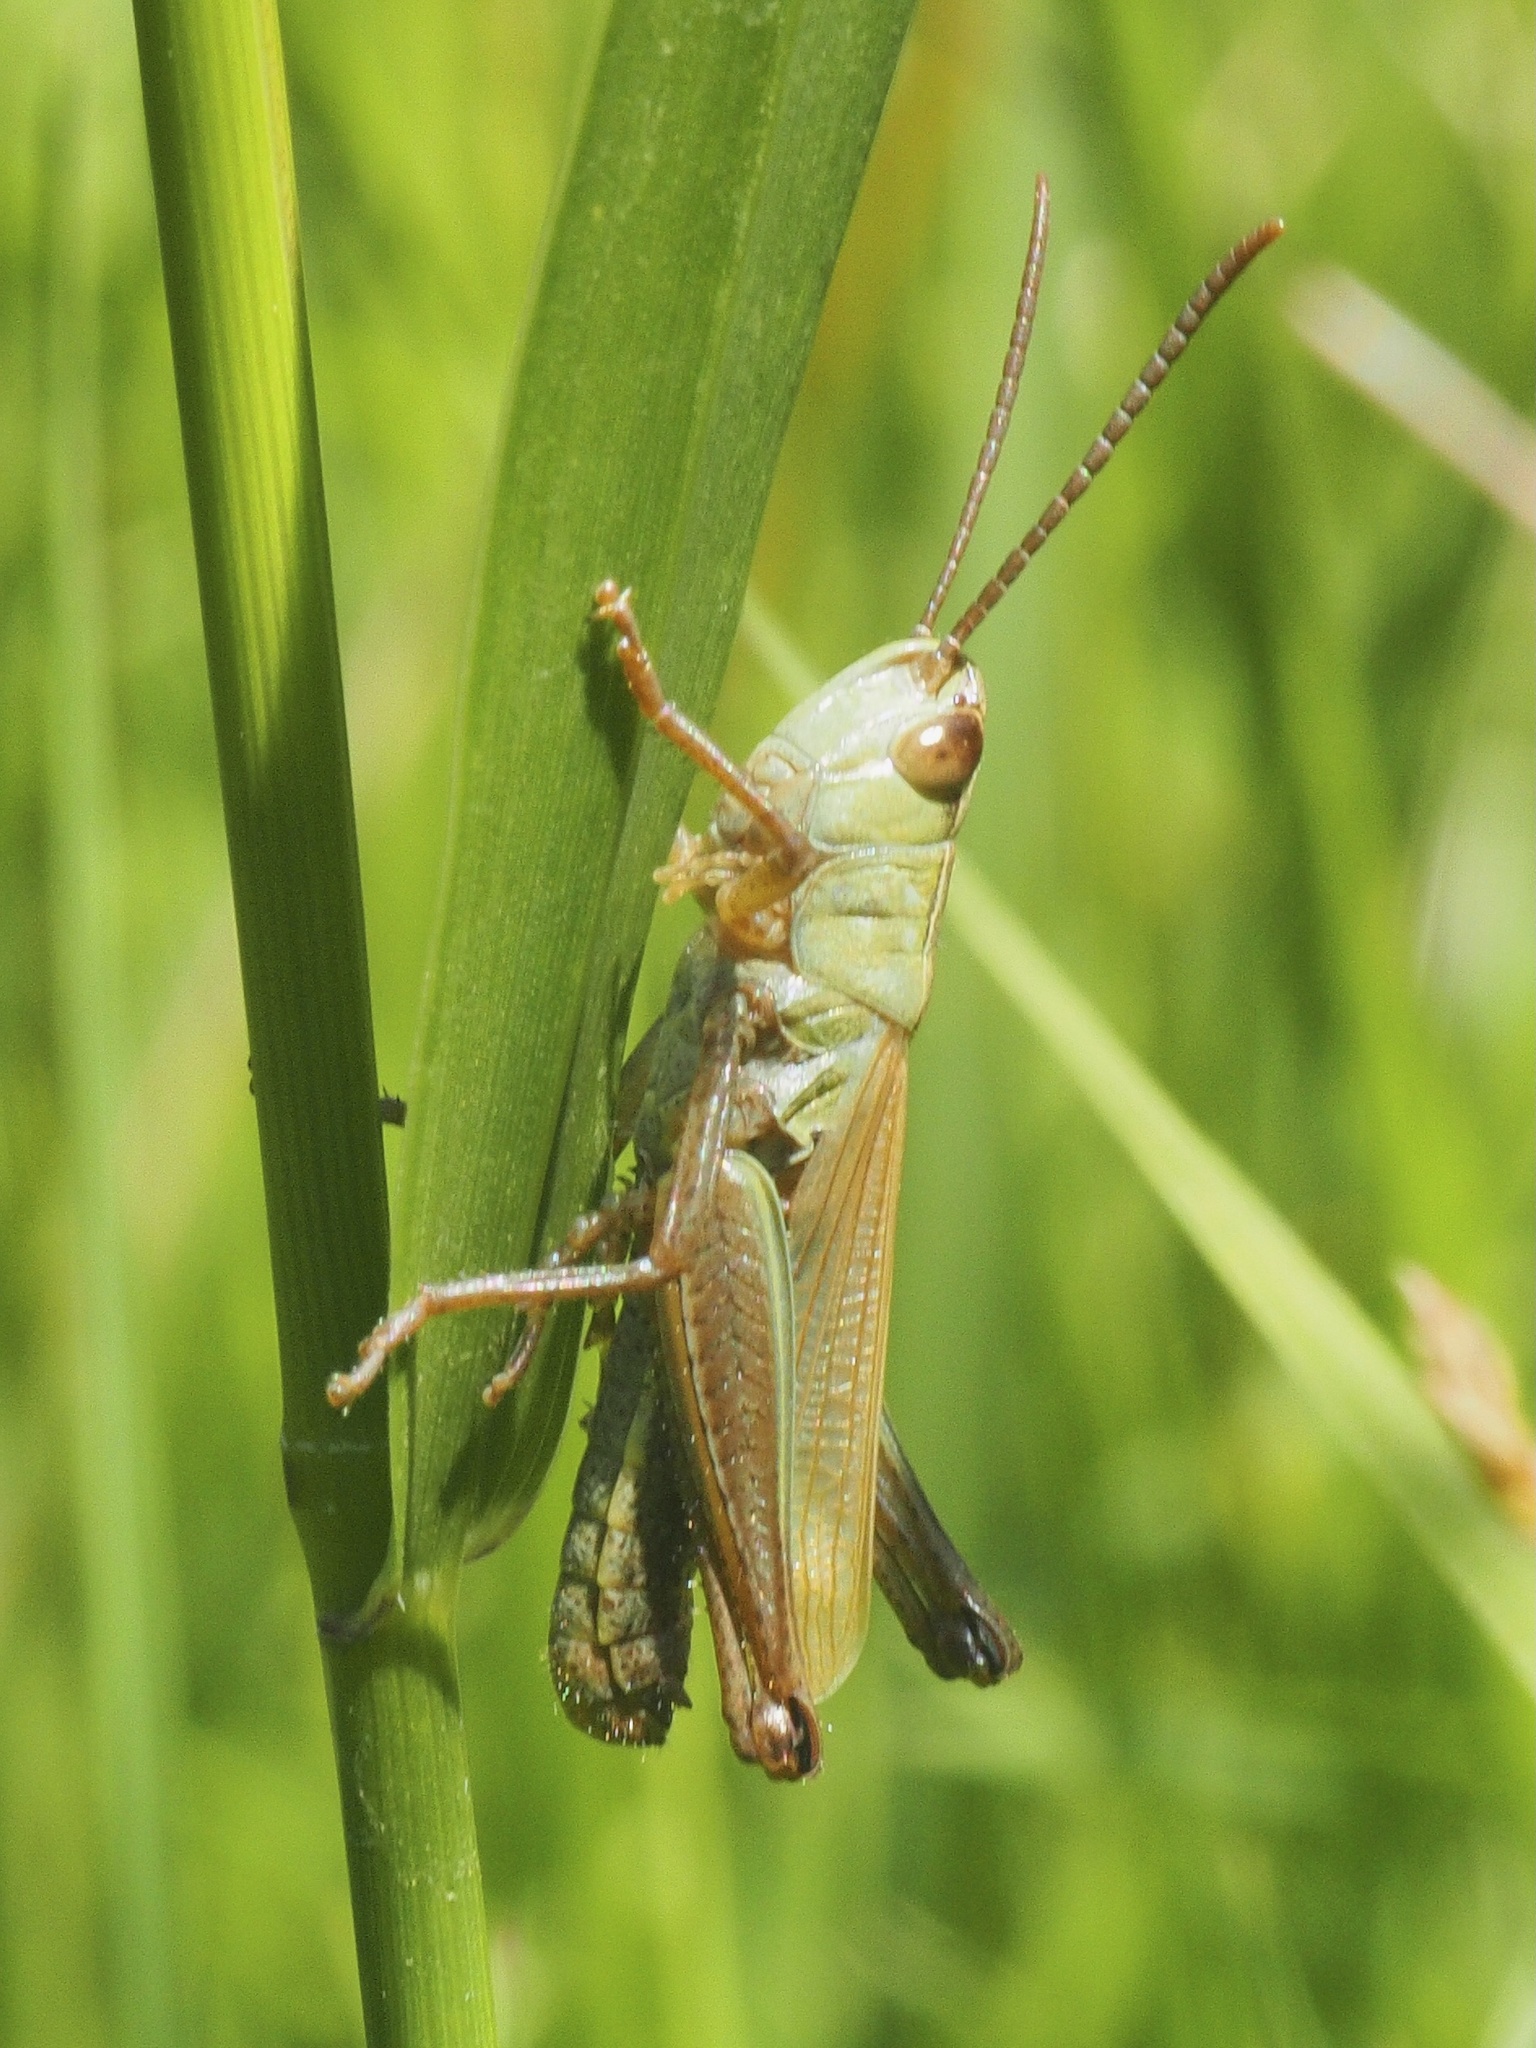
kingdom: Animalia
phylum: Arthropoda
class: Insecta
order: Orthoptera
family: Acrididae
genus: Pseudochorthippus
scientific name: Pseudochorthippus parallelus
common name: Meadow grasshopper
